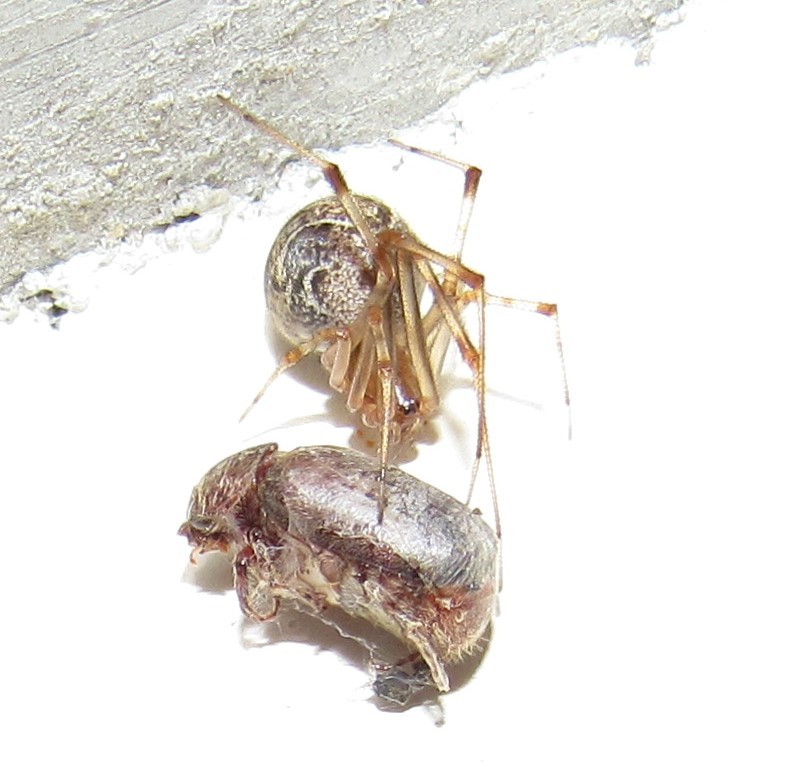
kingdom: Animalia
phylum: Arthropoda
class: Arachnida
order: Araneae
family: Theridiidae
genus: Parasteatoda
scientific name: Parasteatoda tepidariorum
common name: Common house spider
